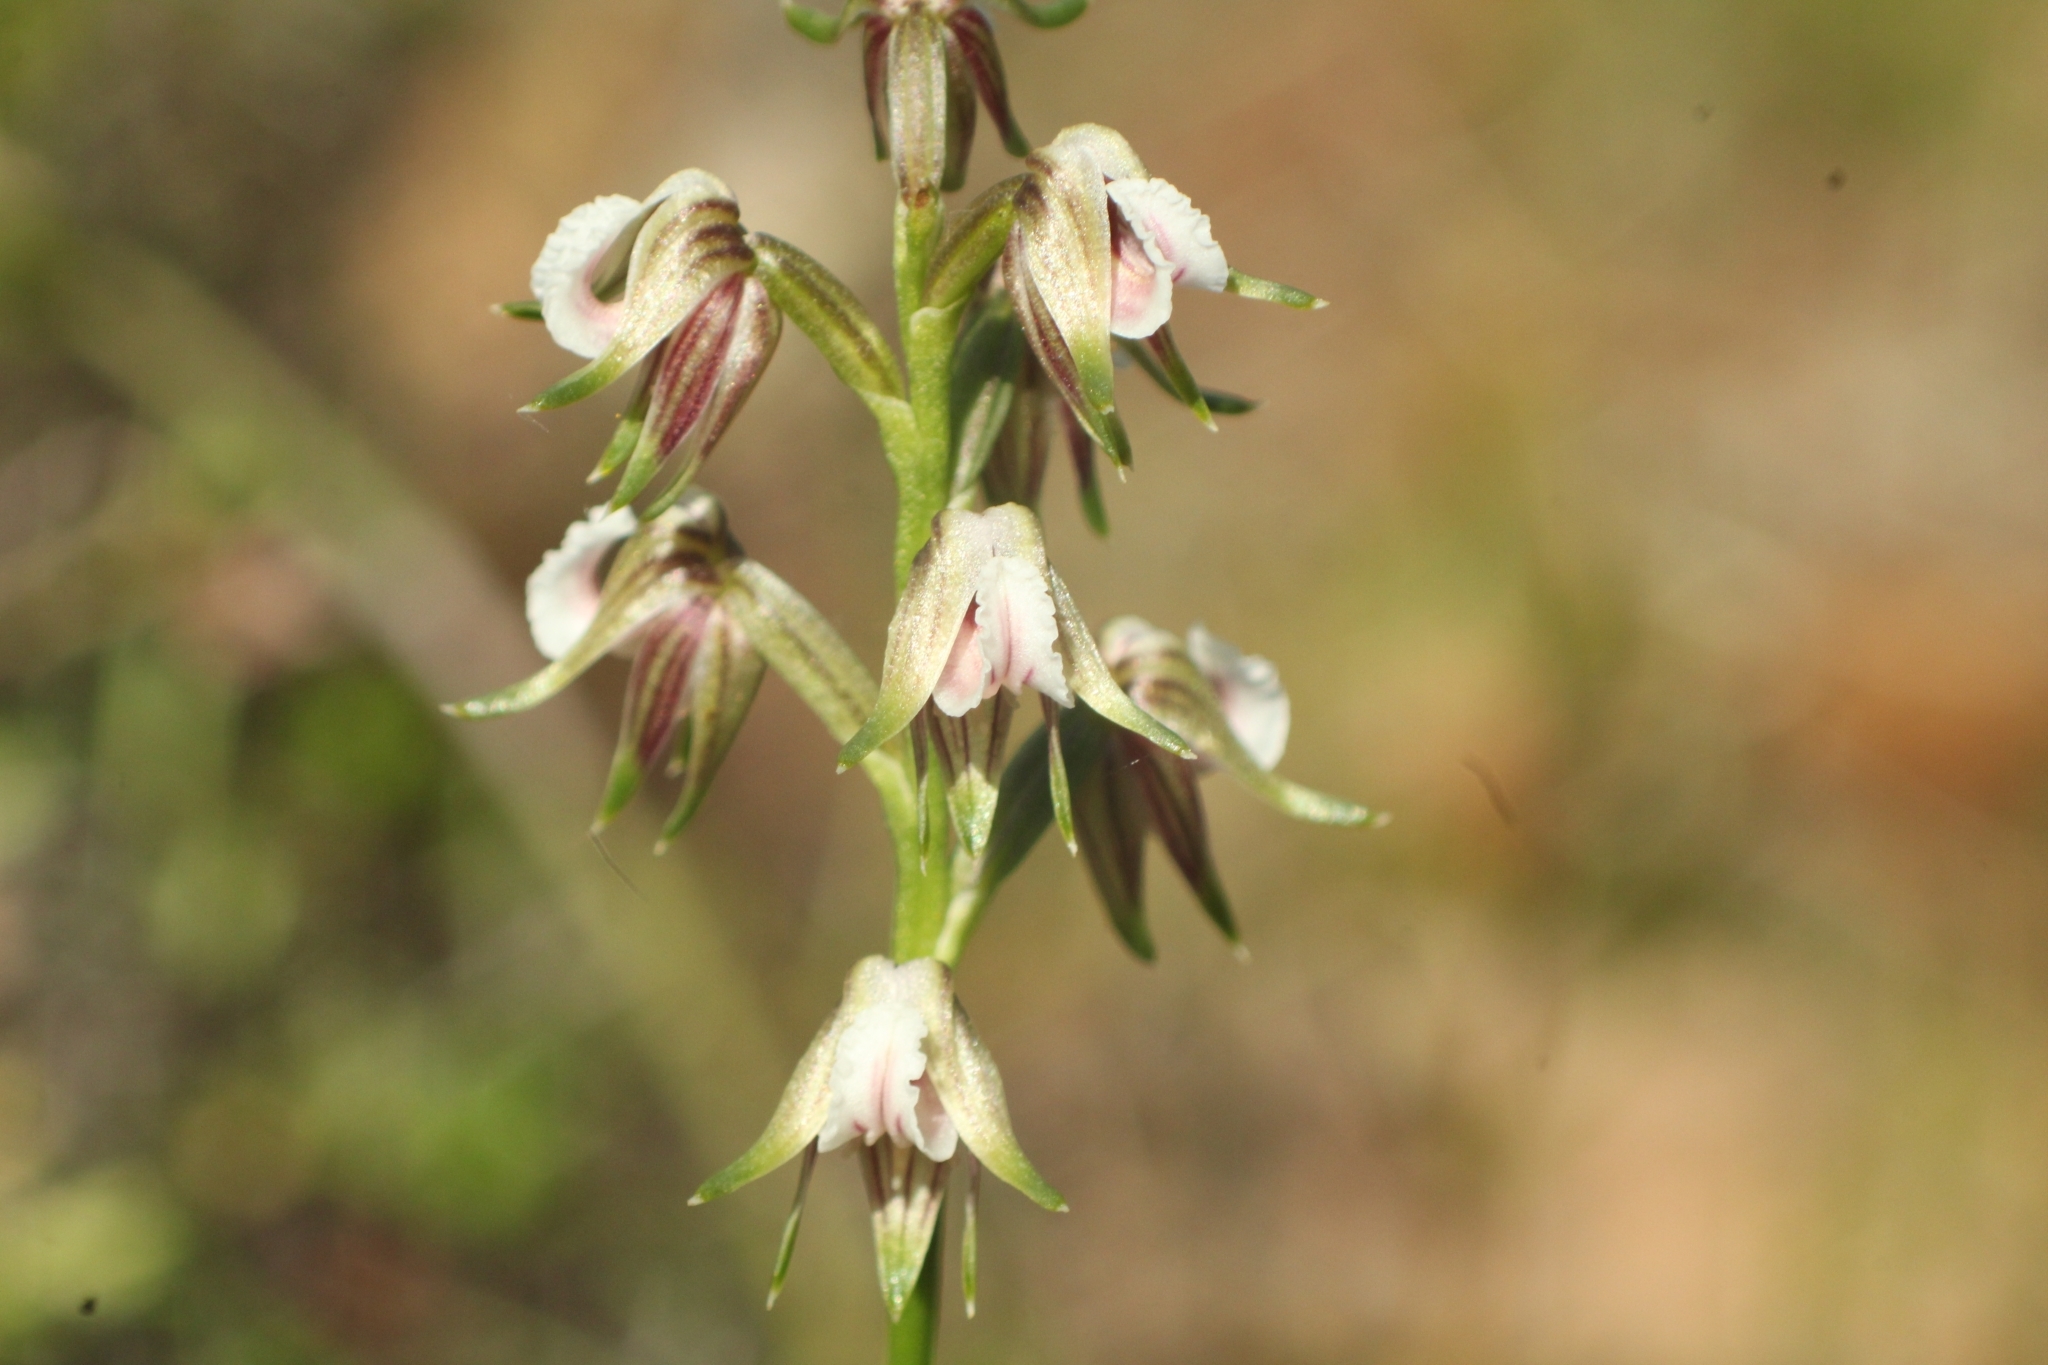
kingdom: Plantae
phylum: Tracheophyta
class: Liliopsida
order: Asparagales
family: Orchidaceae
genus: Prasophyllum
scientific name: Prasophyllum parvifolium
